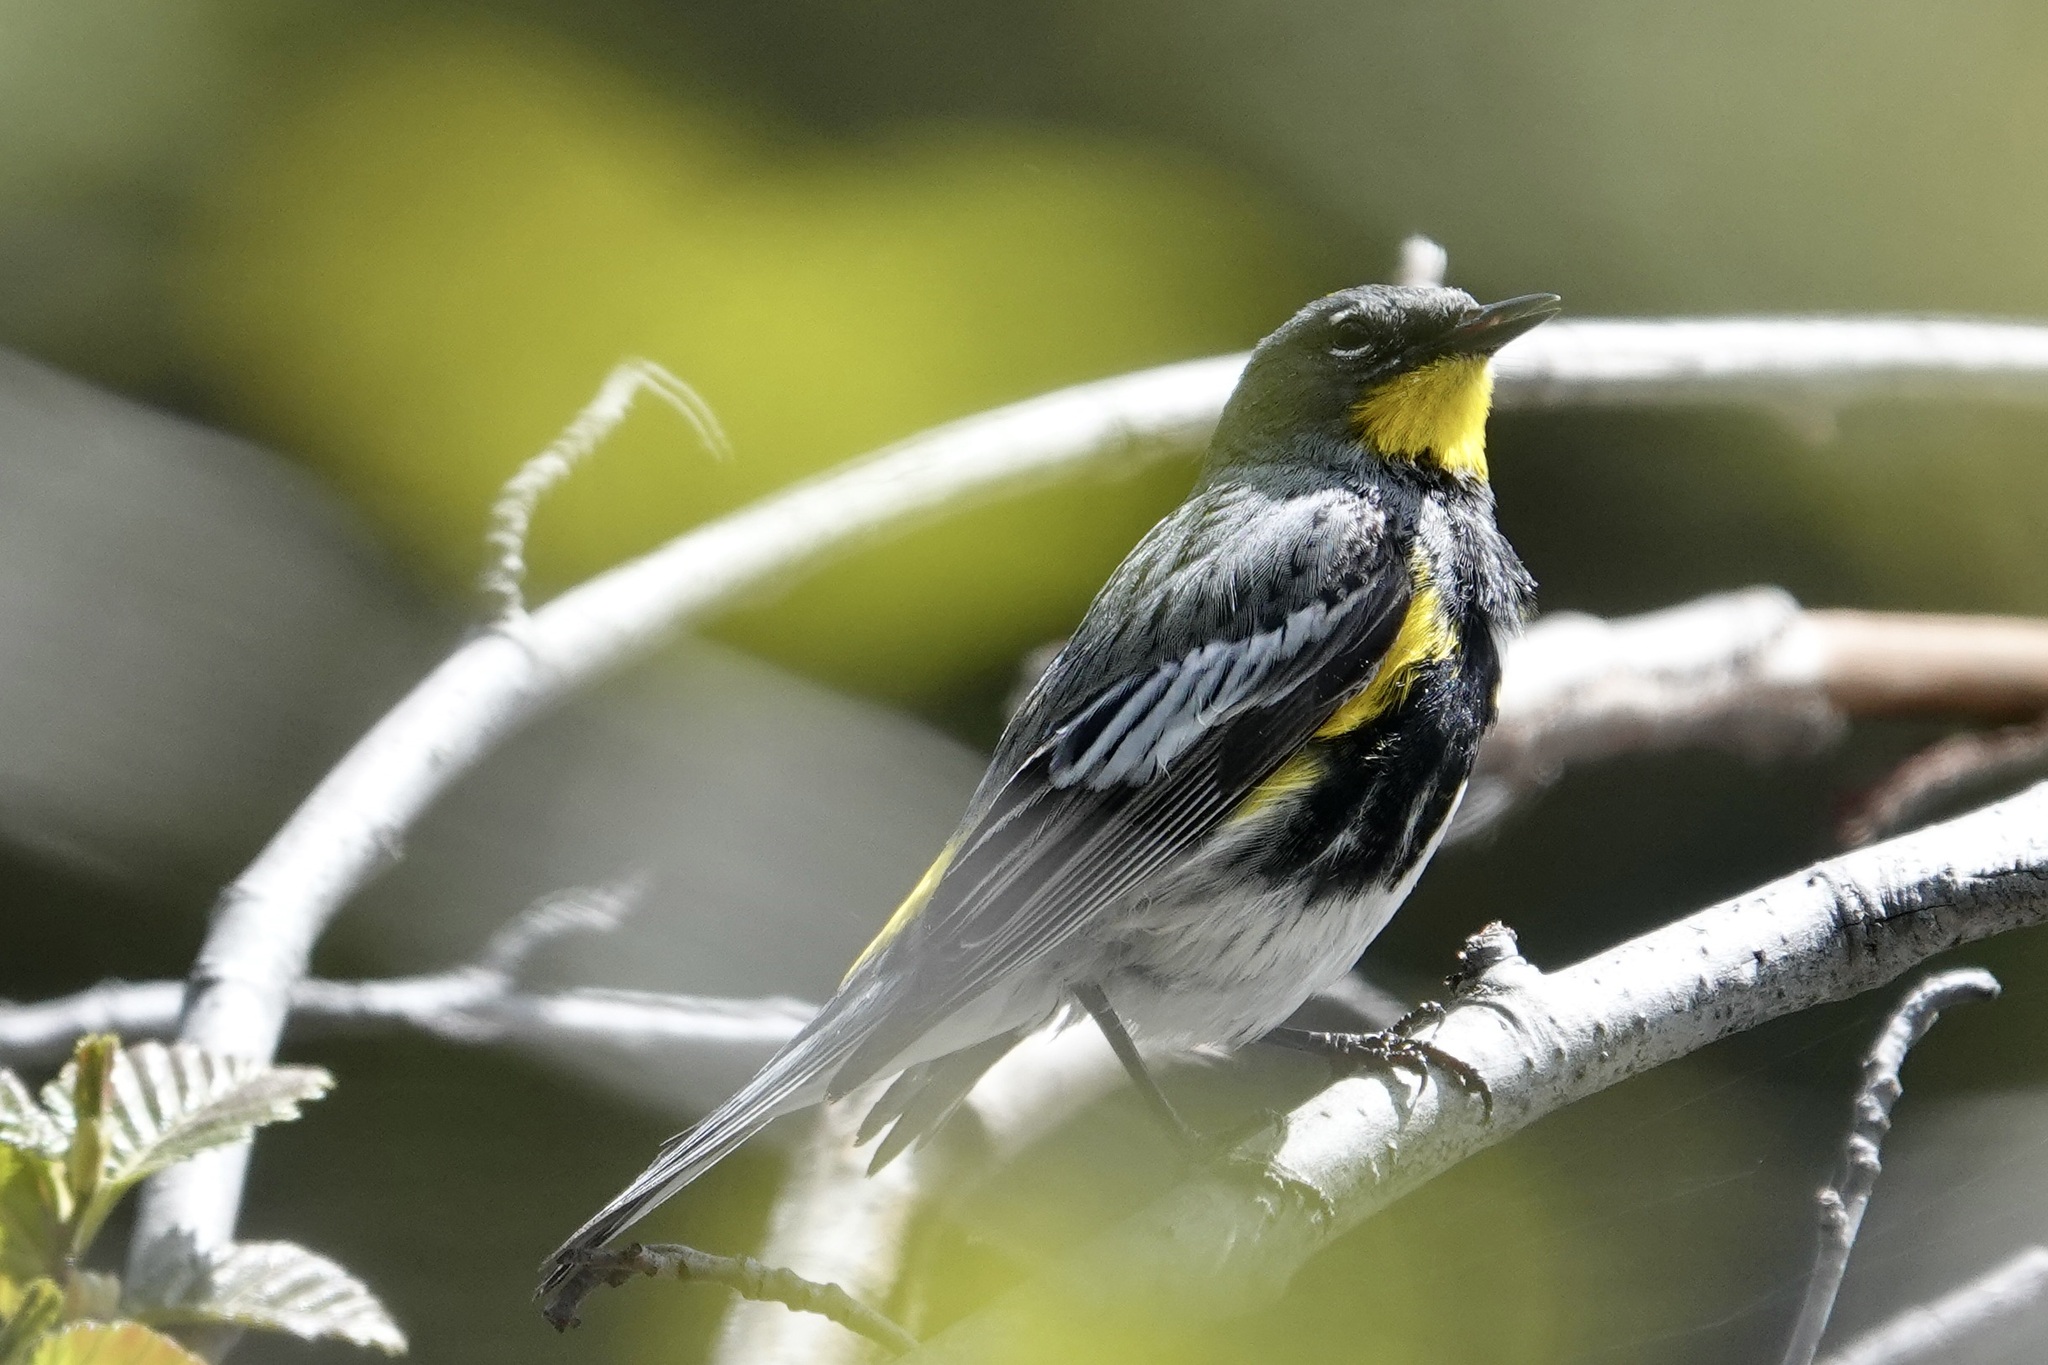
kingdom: Animalia
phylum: Chordata
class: Aves
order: Passeriformes
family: Parulidae
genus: Setophaga
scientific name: Setophaga coronata
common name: Myrtle warbler
